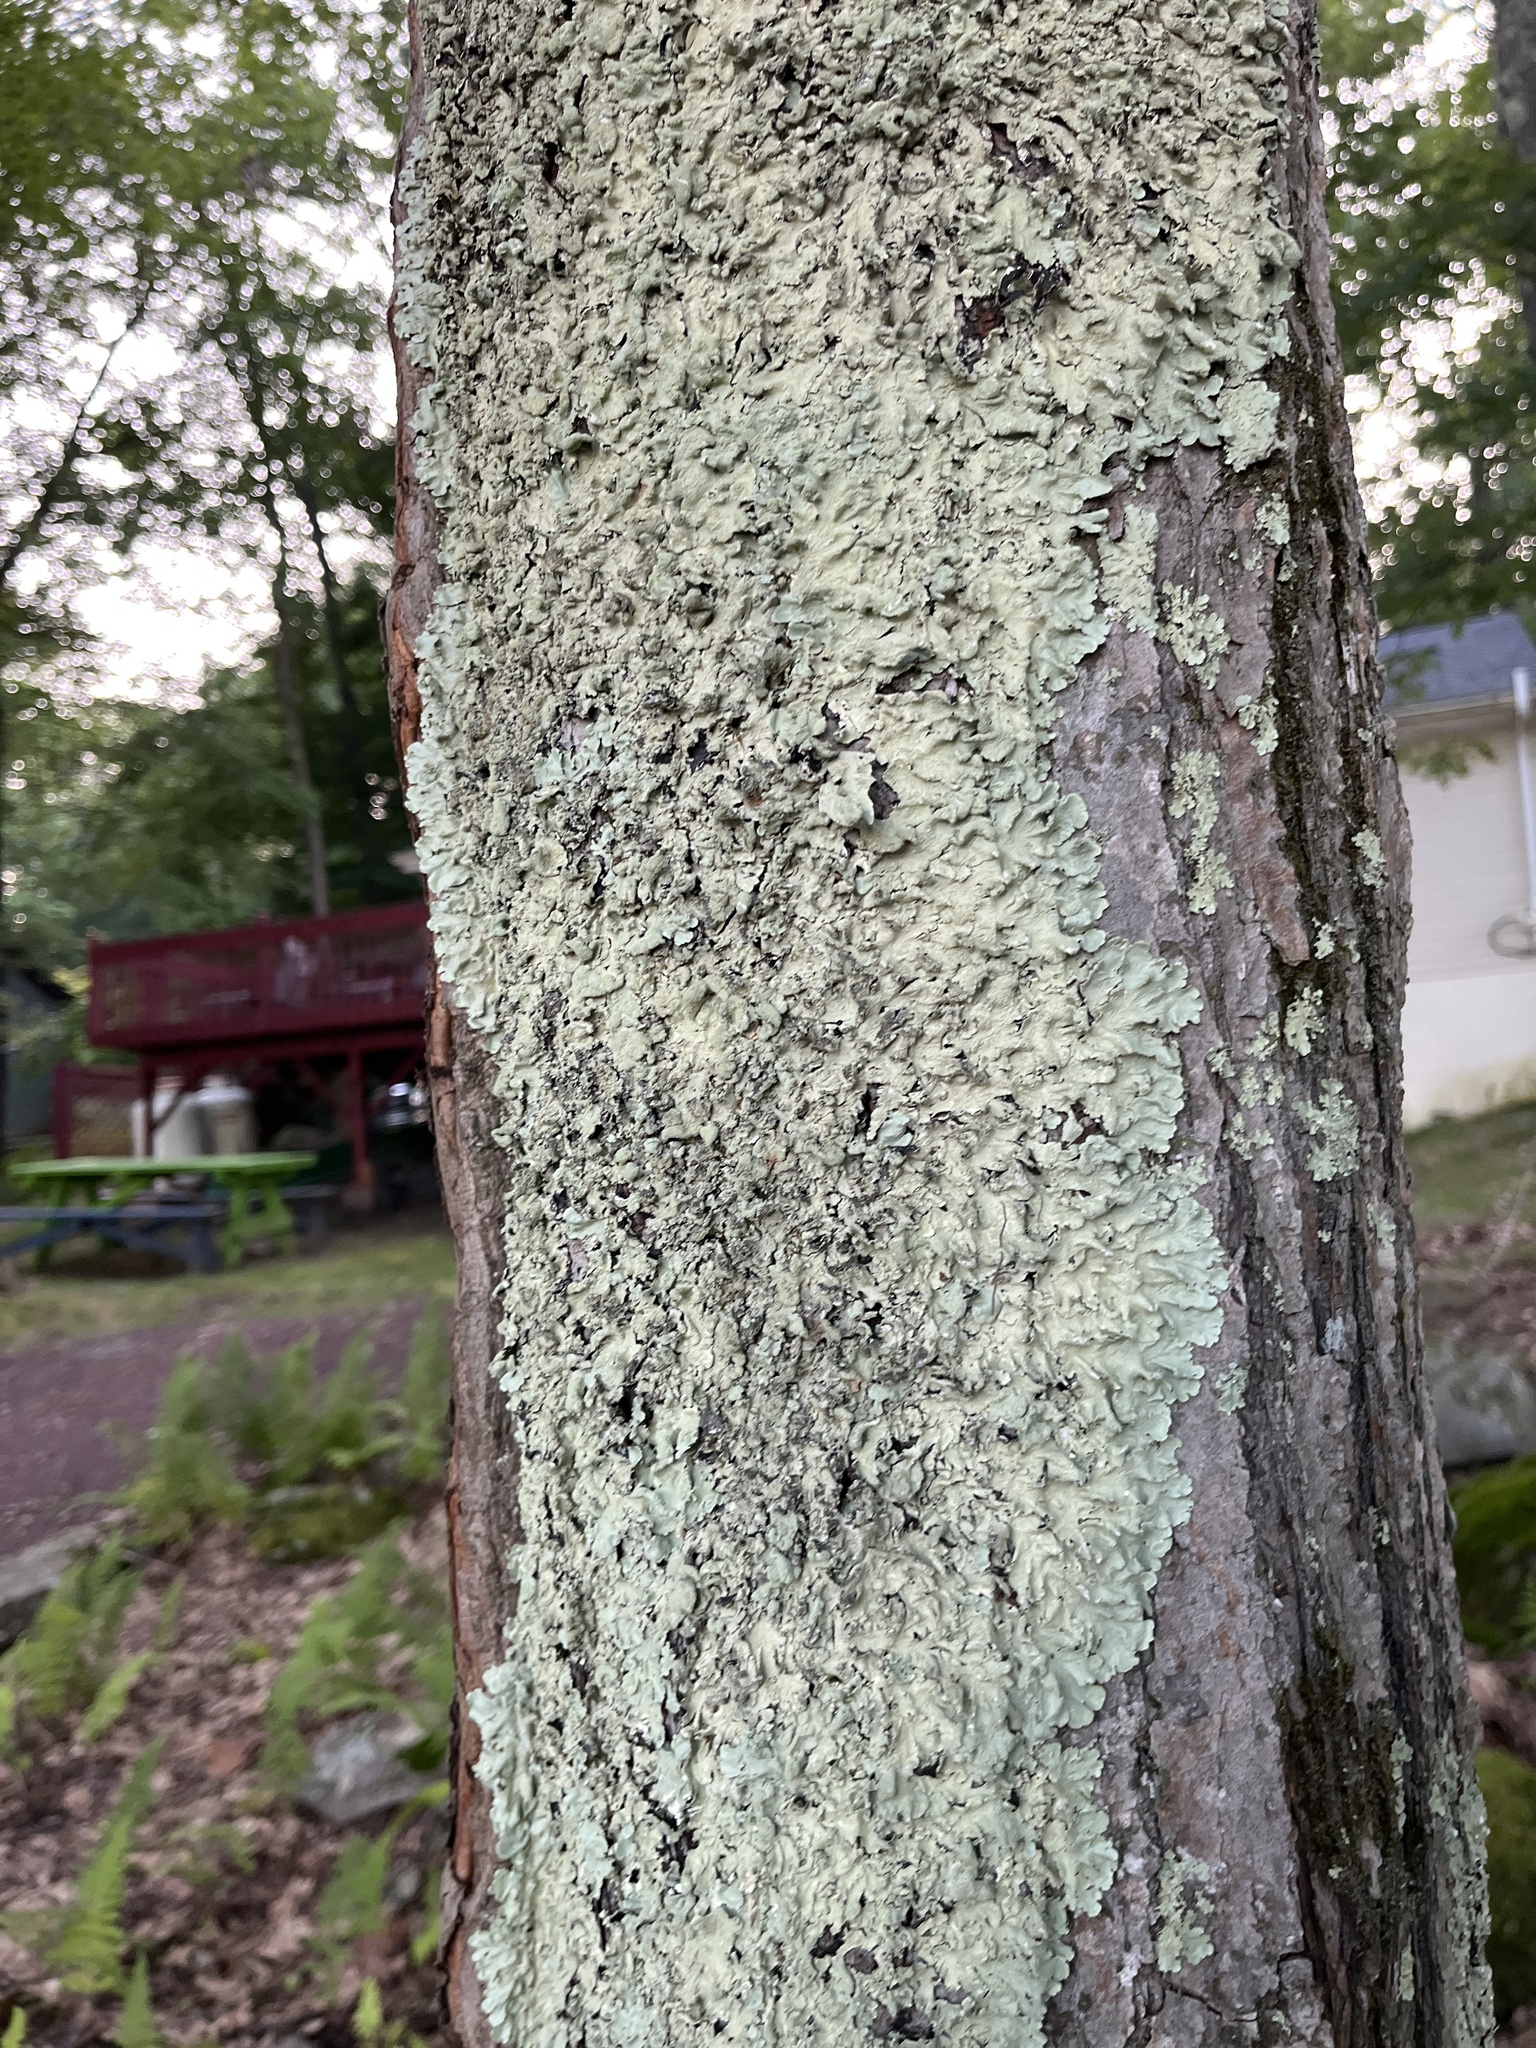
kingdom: Fungi
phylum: Ascomycota
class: Lecanoromycetes
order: Lecanorales
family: Parmeliaceae
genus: Flavoparmelia
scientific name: Flavoparmelia caperata
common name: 40-mile per hour lichen
